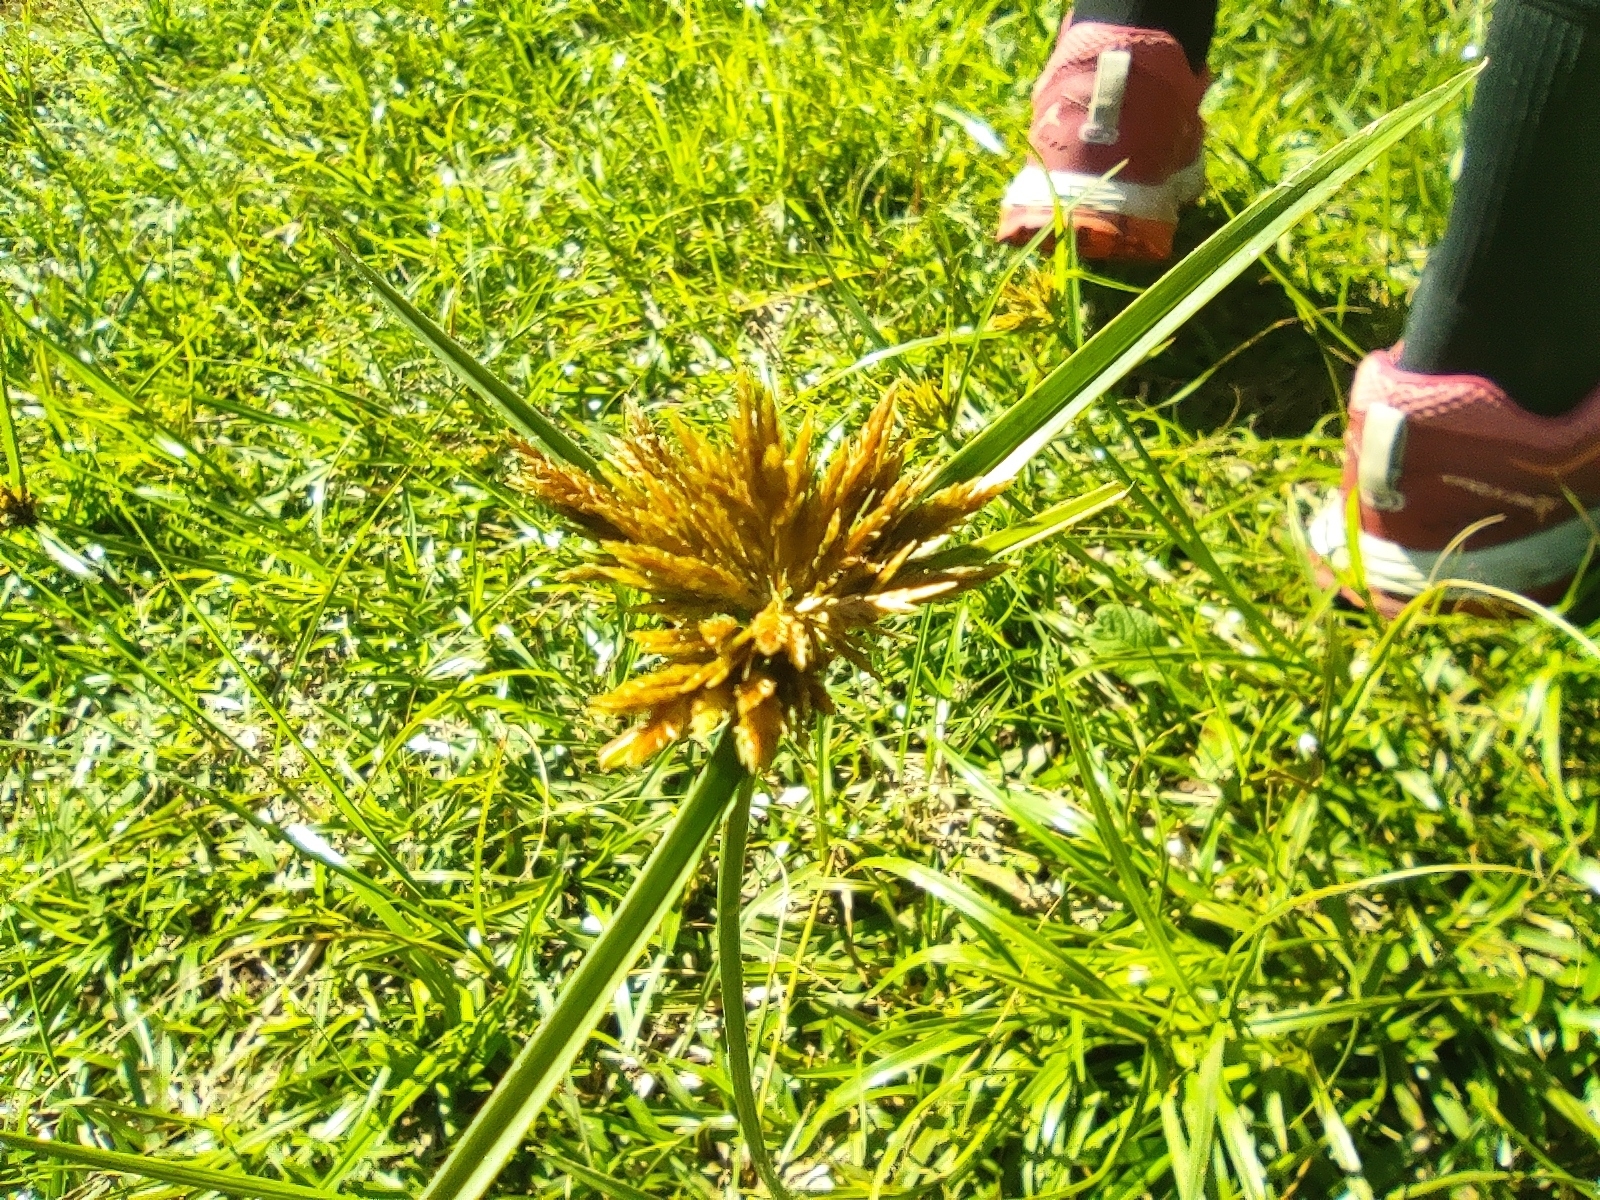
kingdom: Plantae
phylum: Tracheophyta
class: Liliopsida
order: Poales
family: Cyperaceae
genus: Cyperus
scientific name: Cyperus polystachyos
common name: Bunchy flat sedge
